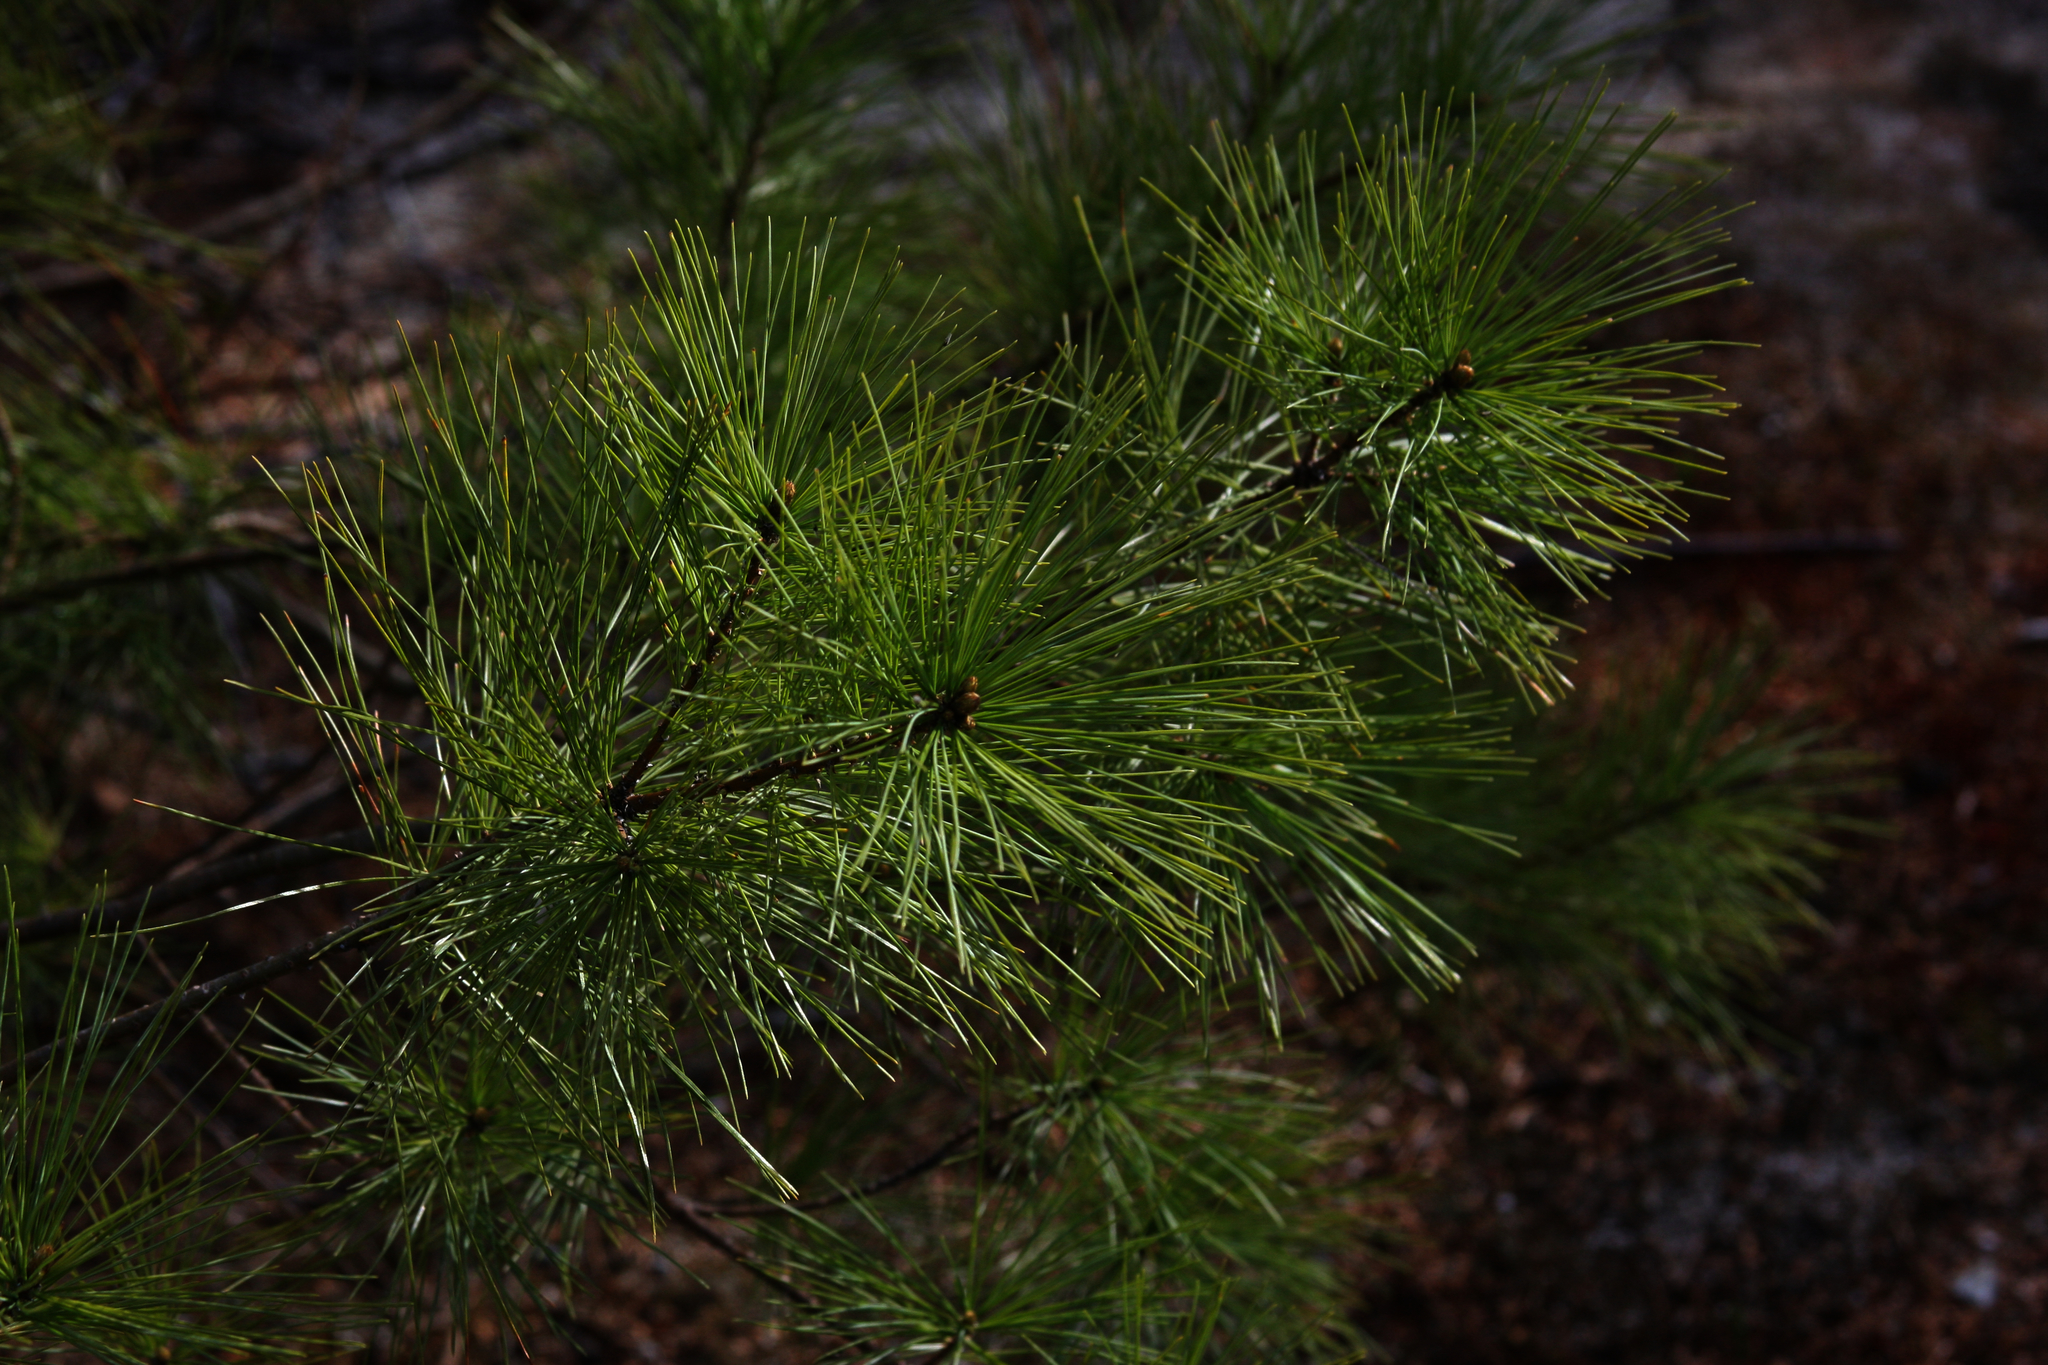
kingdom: Plantae
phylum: Tracheophyta
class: Pinopsida
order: Pinales
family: Pinaceae
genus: Pinus
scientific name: Pinus strobus
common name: Weymouth pine
